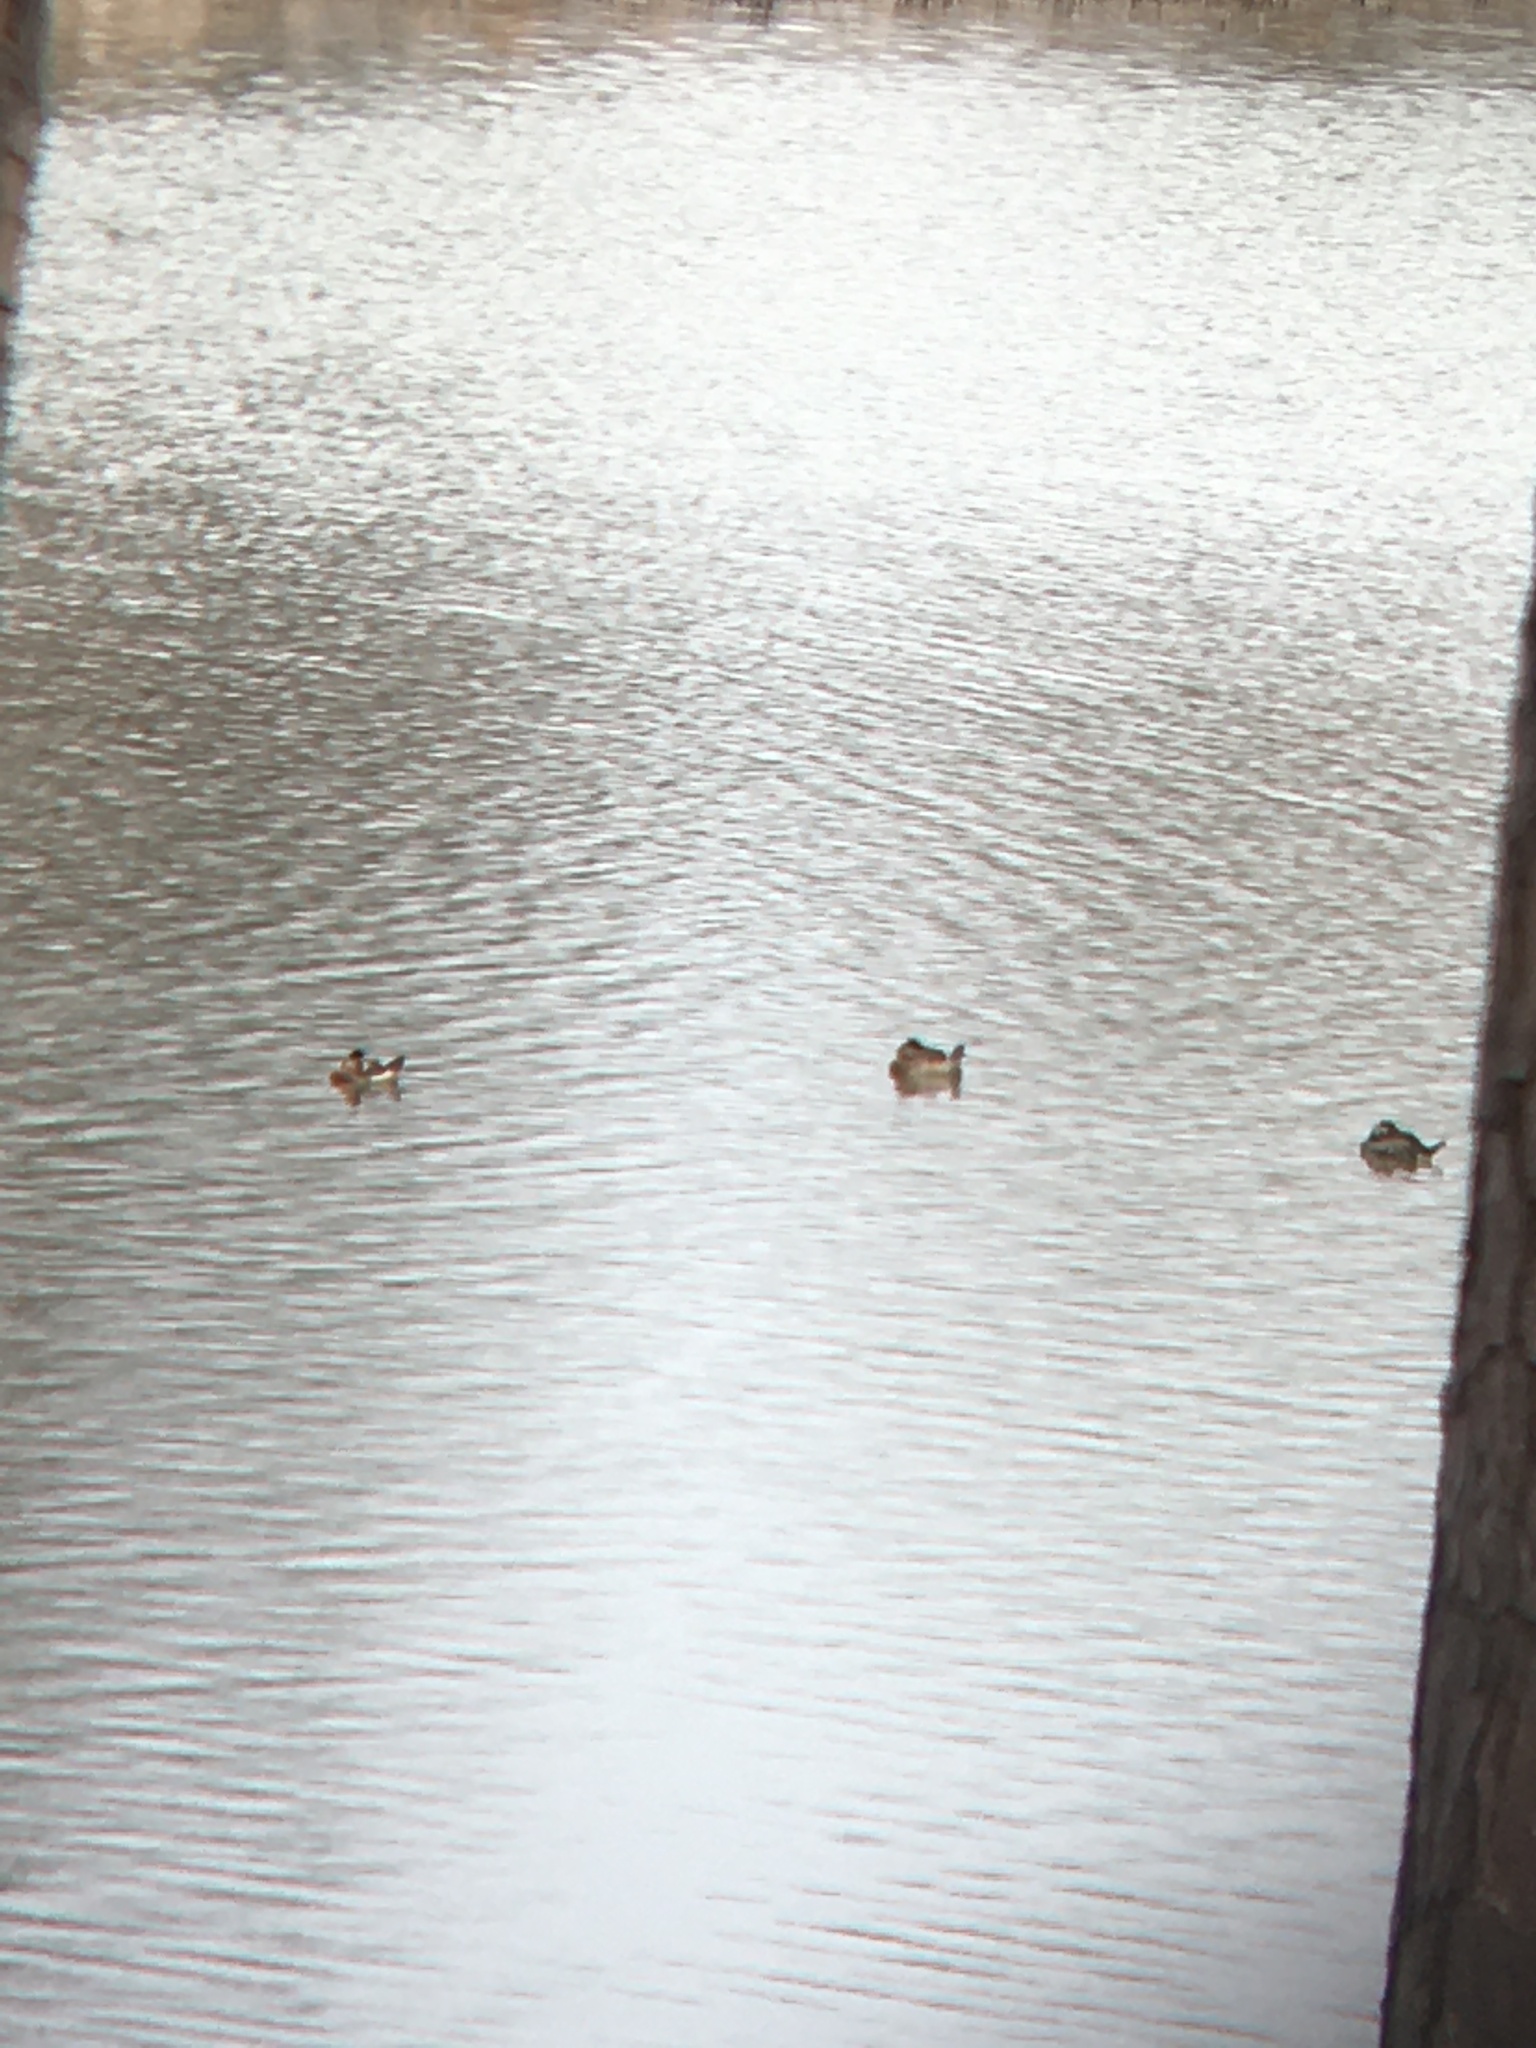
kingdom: Animalia
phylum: Chordata
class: Aves
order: Anseriformes
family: Anatidae
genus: Oxyura
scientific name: Oxyura jamaicensis
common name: Ruddy duck
